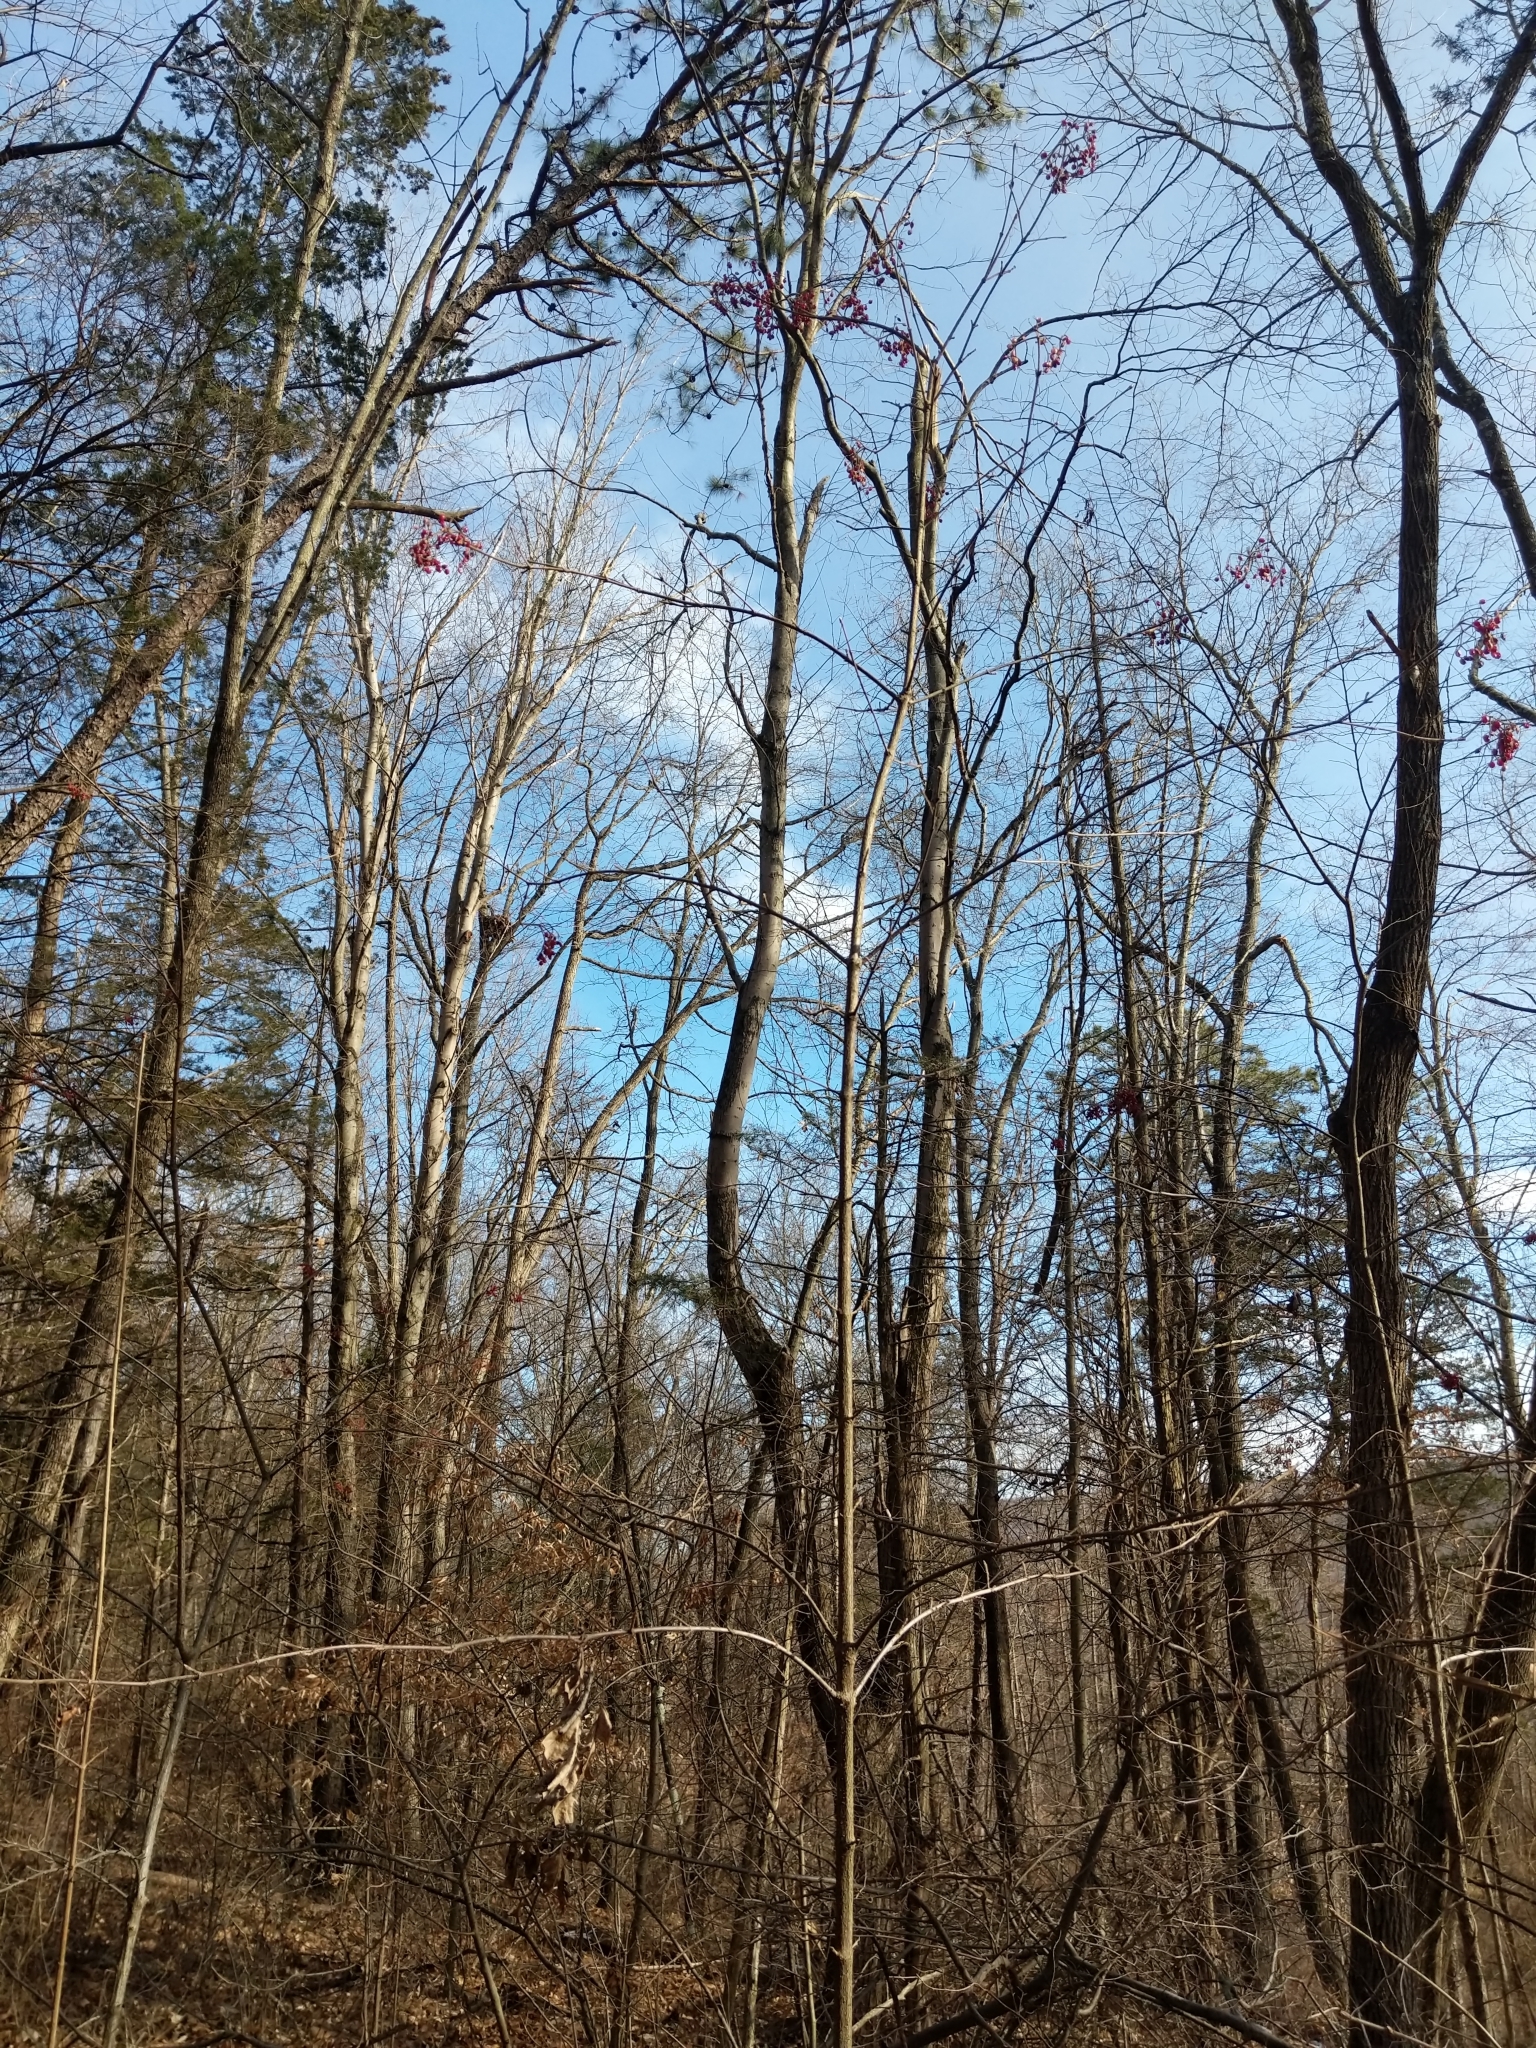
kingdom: Plantae
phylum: Tracheophyta
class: Magnoliopsida
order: Dipsacales
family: Viburnaceae
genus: Viburnum
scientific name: Viburnum dilatatum
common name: Linden arrowwood
